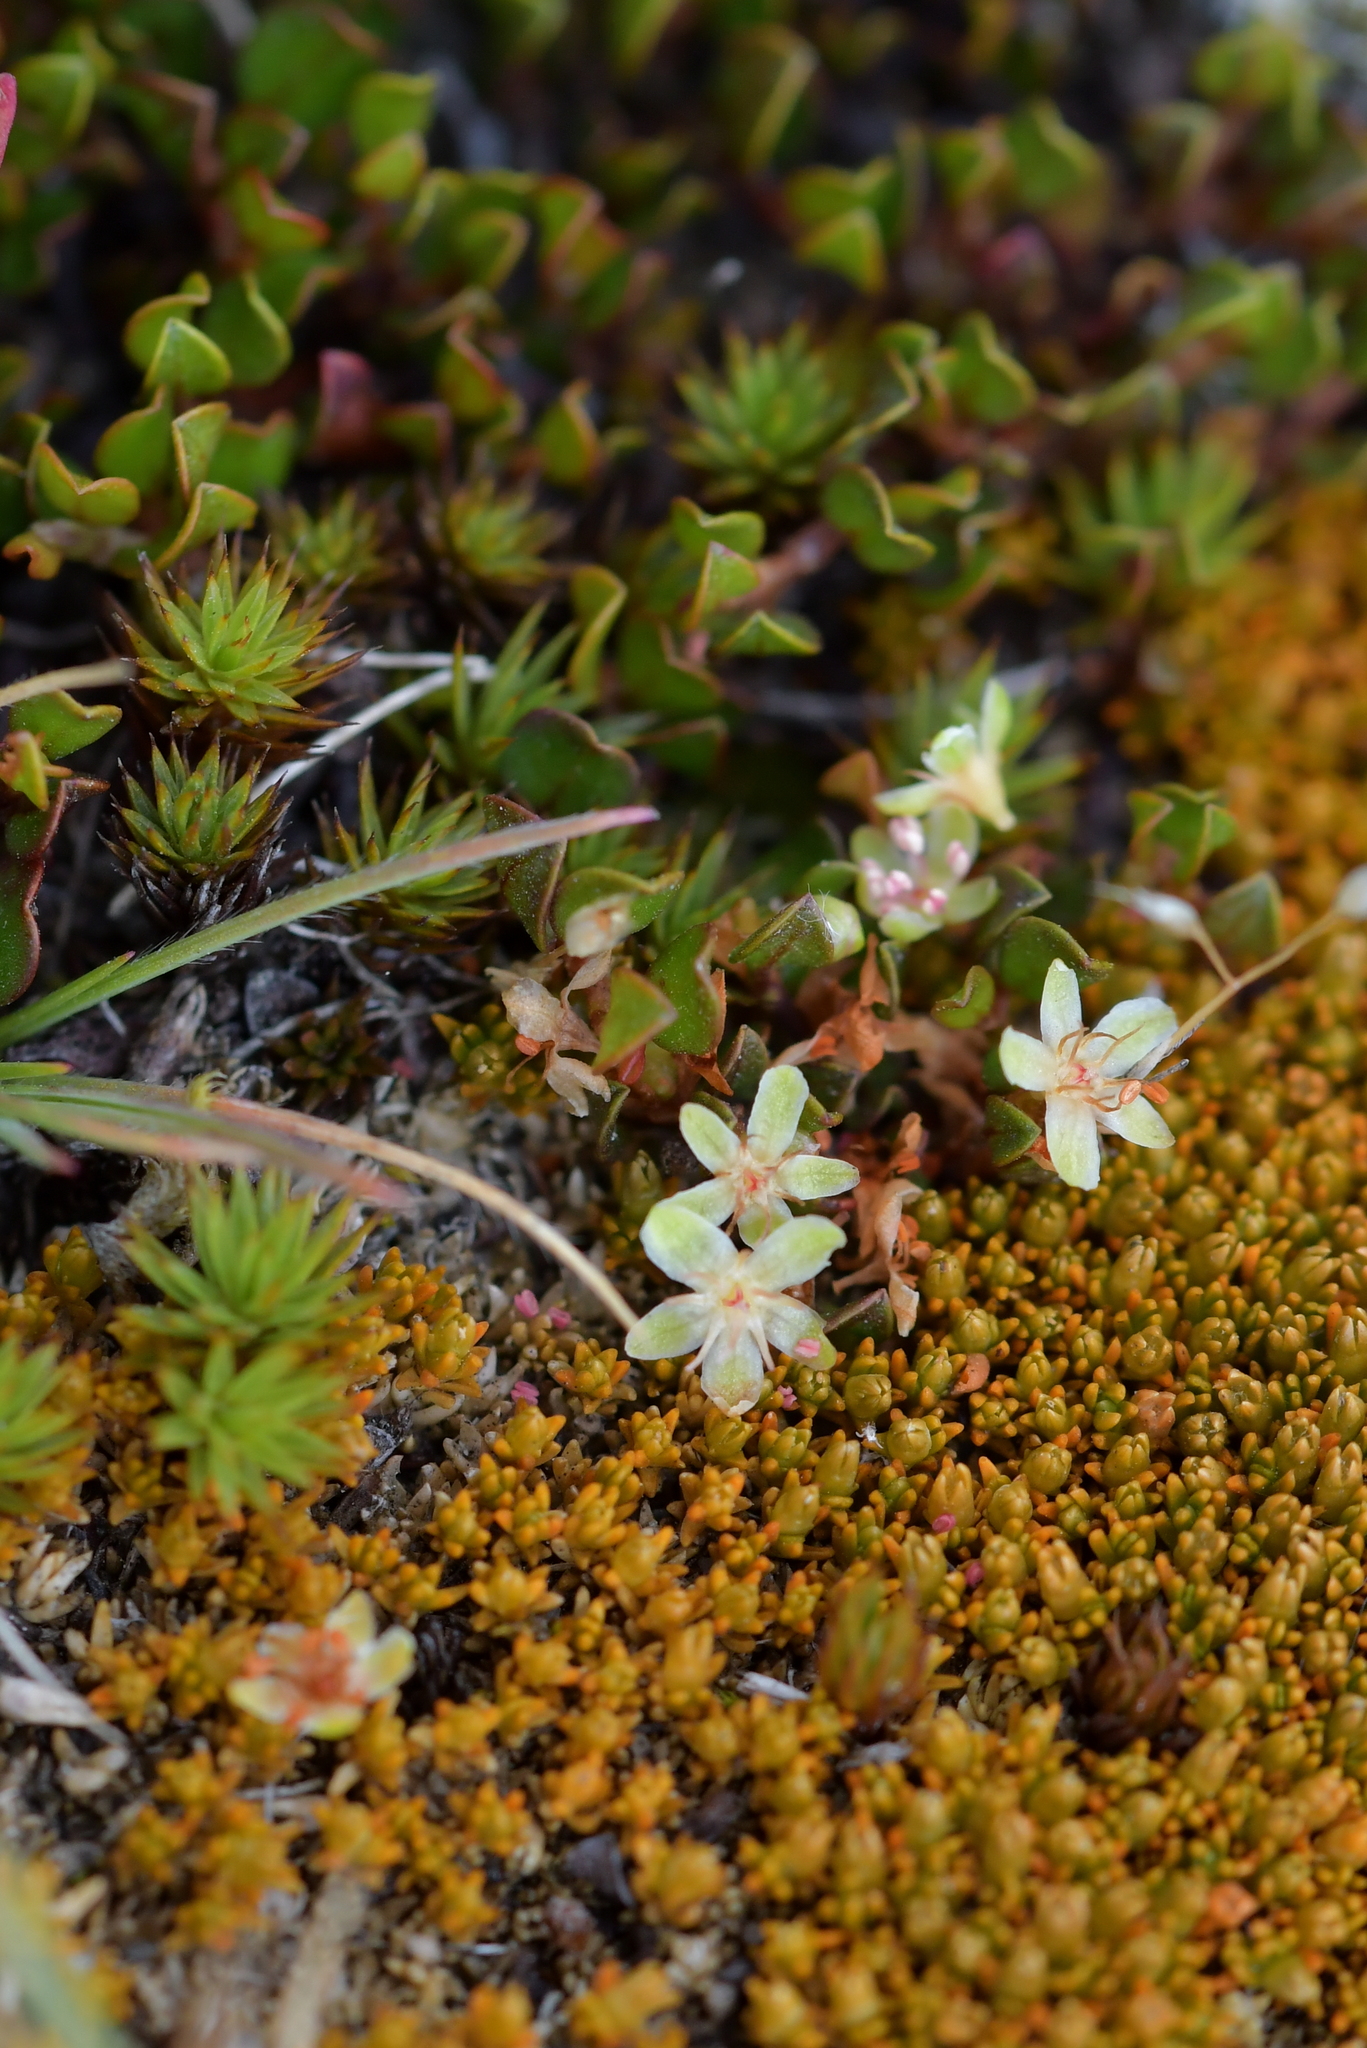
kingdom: Plantae
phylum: Tracheophyta
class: Magnoliopsida
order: Caryophyllales
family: Polygonaceae
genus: Muehlenbeckia
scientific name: Muehlenbeckia axillaris
